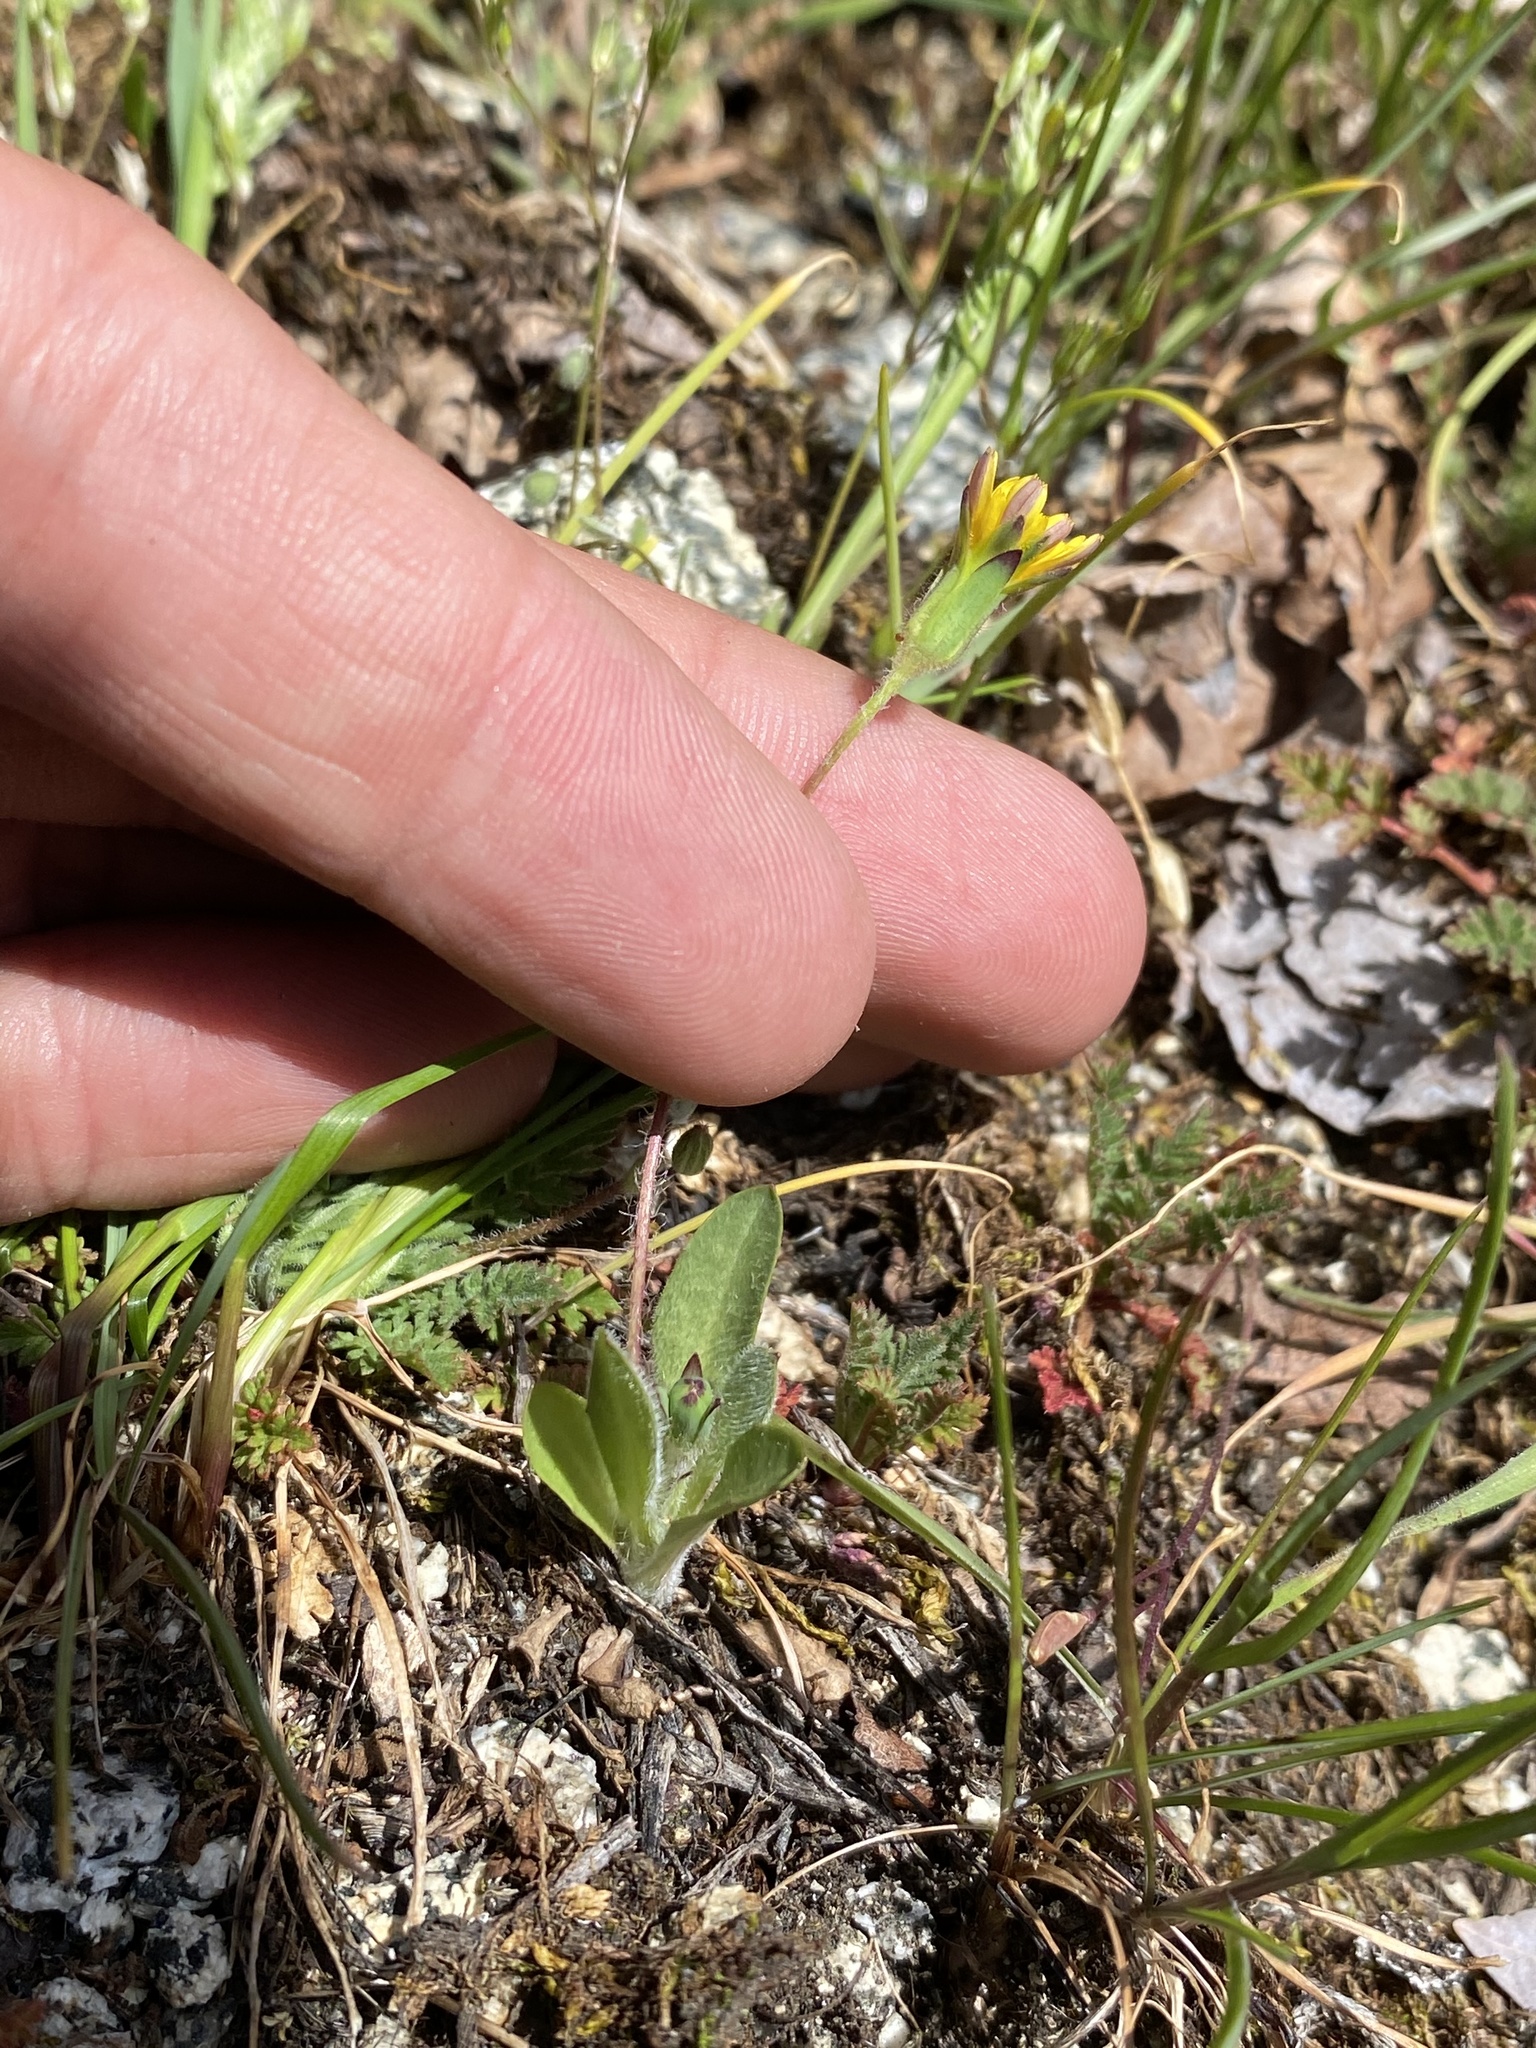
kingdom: Plantae
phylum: Tracheophyta
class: Magnoliopsida
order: Asterales
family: Asteraceae
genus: Agoseris
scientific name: Agoseris heterophylla
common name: Annual agoseris
